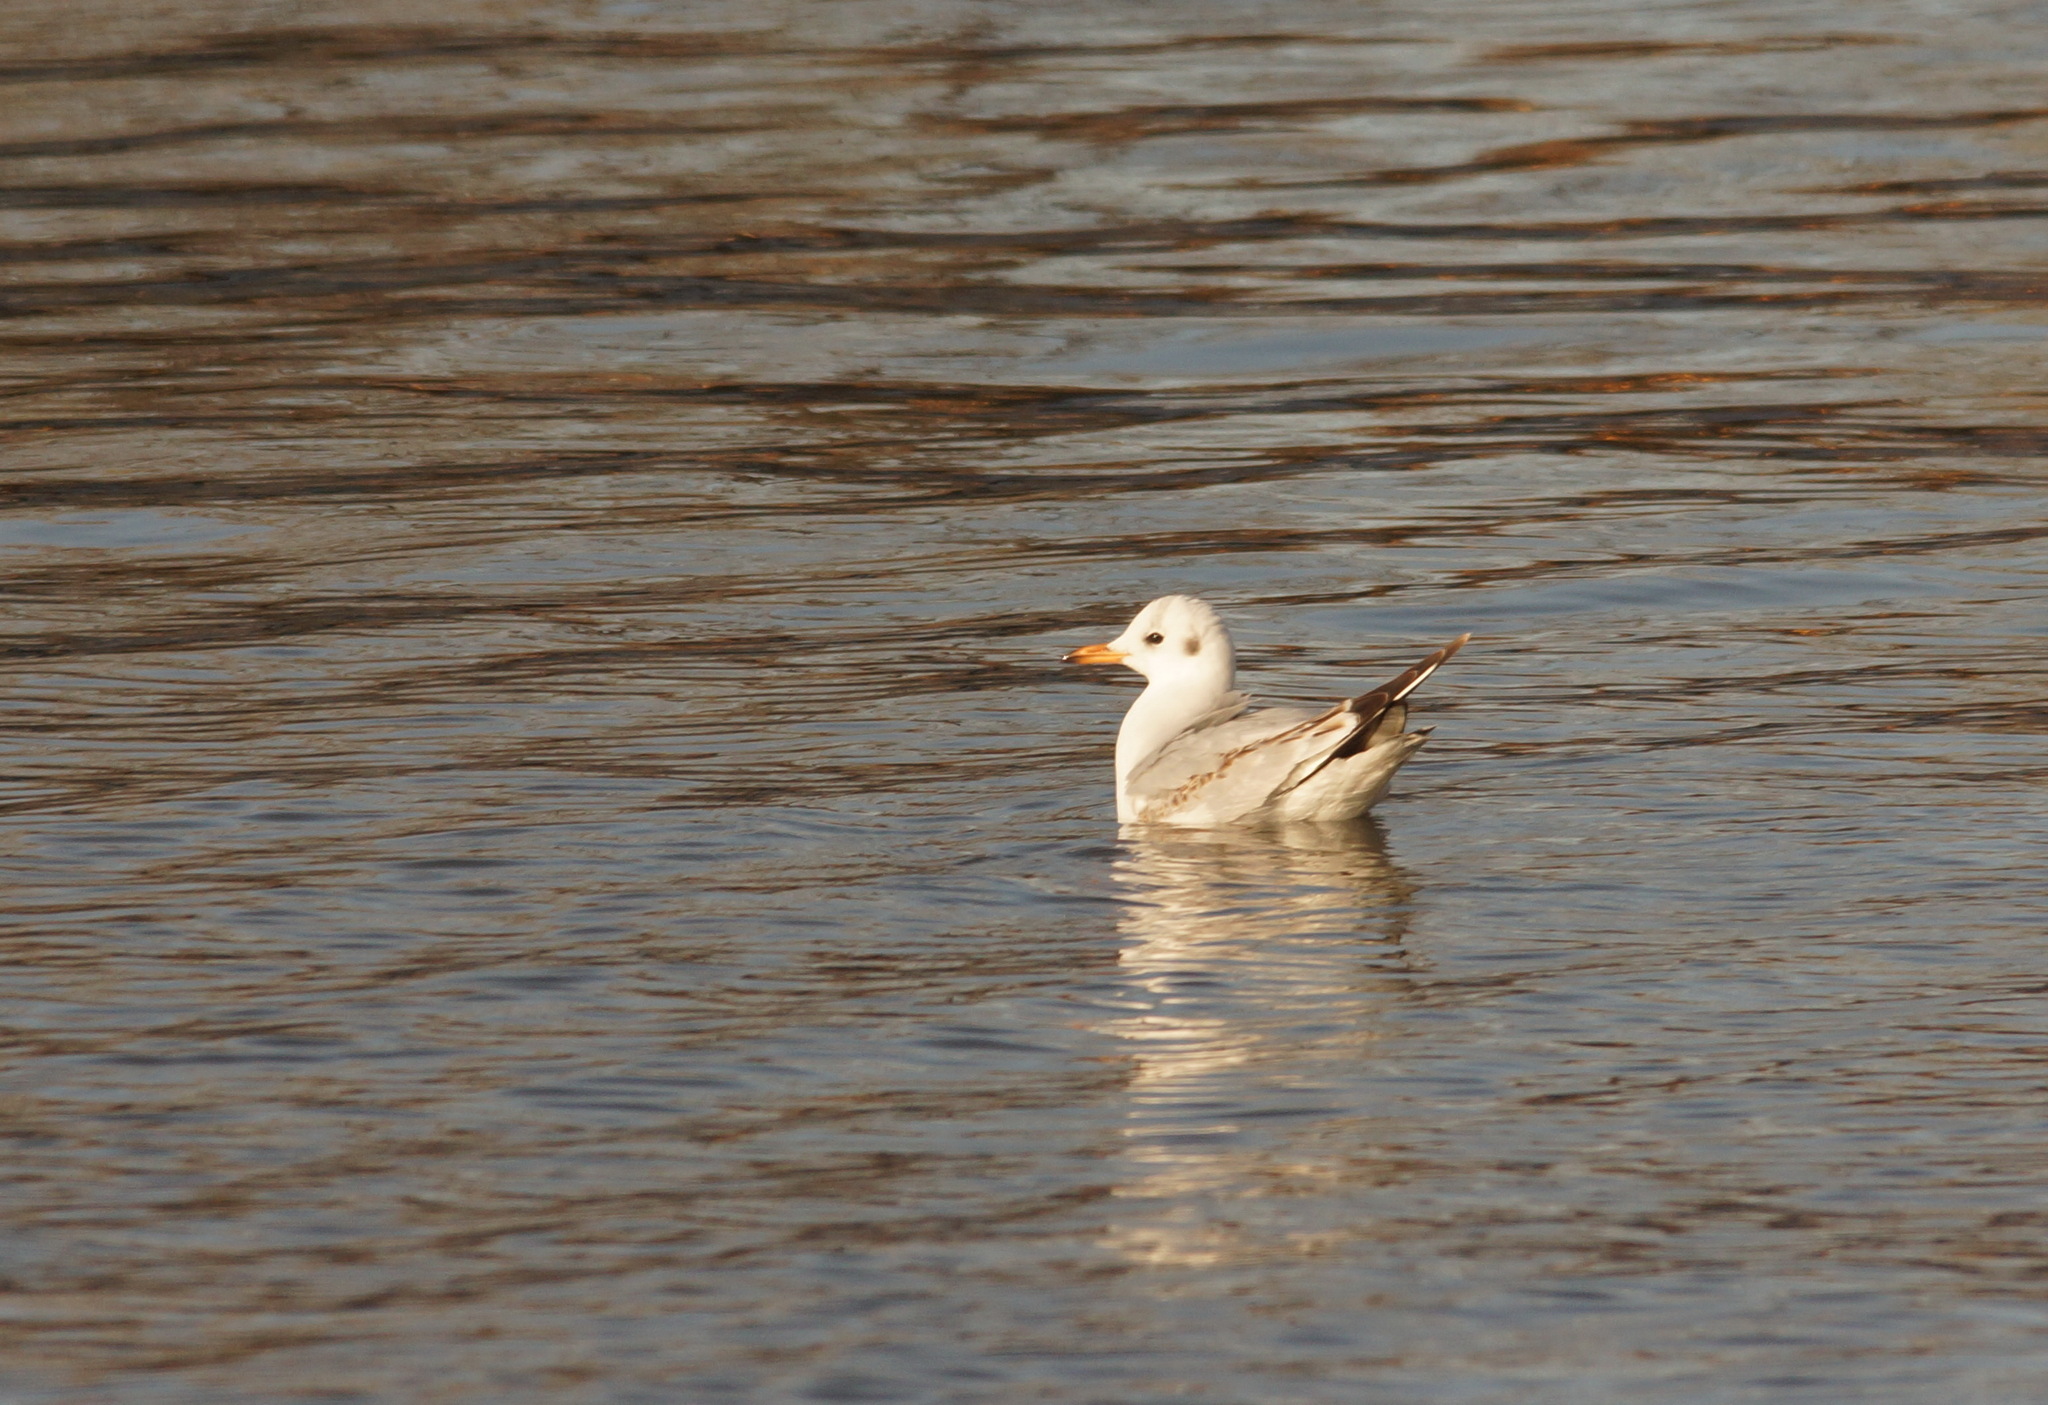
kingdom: Animalia
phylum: Chordata
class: Aves
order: Charadriiformes
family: Laridae
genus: Chroicocephalus
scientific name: Chroicocephalus ridibundus
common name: Black-headed gull
